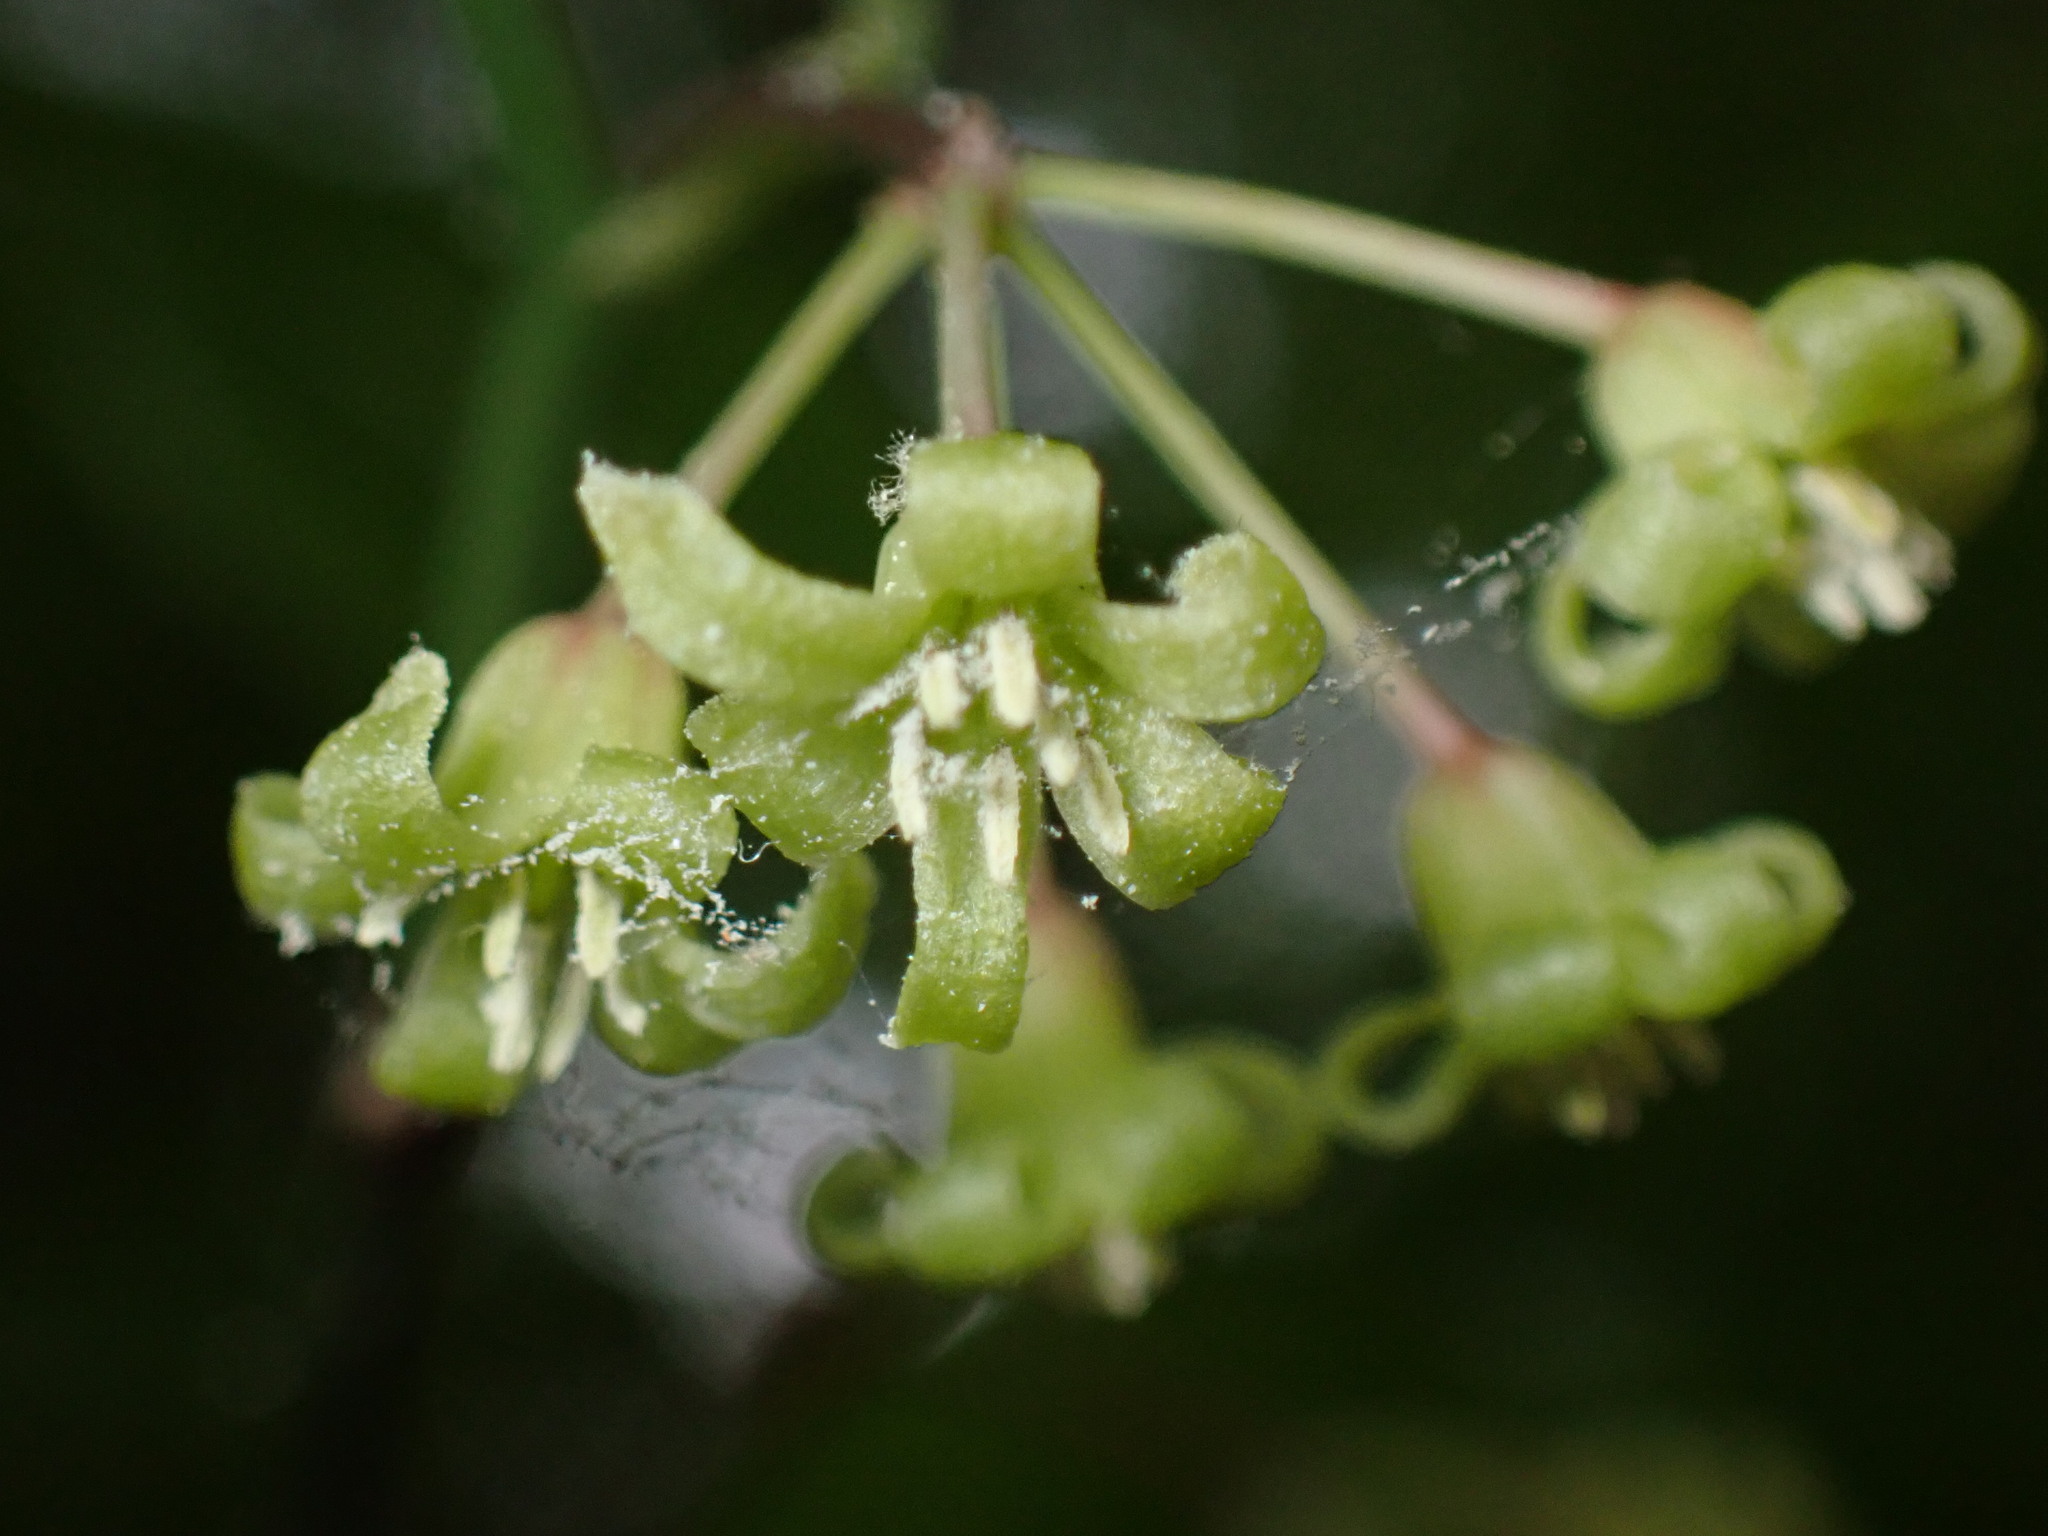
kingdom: Plantae
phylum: Tracheophyta
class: Liliopsida
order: Liliales
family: Smilacaceae
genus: Smilax
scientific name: Smilax rotundifolia
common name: Bullbriar
